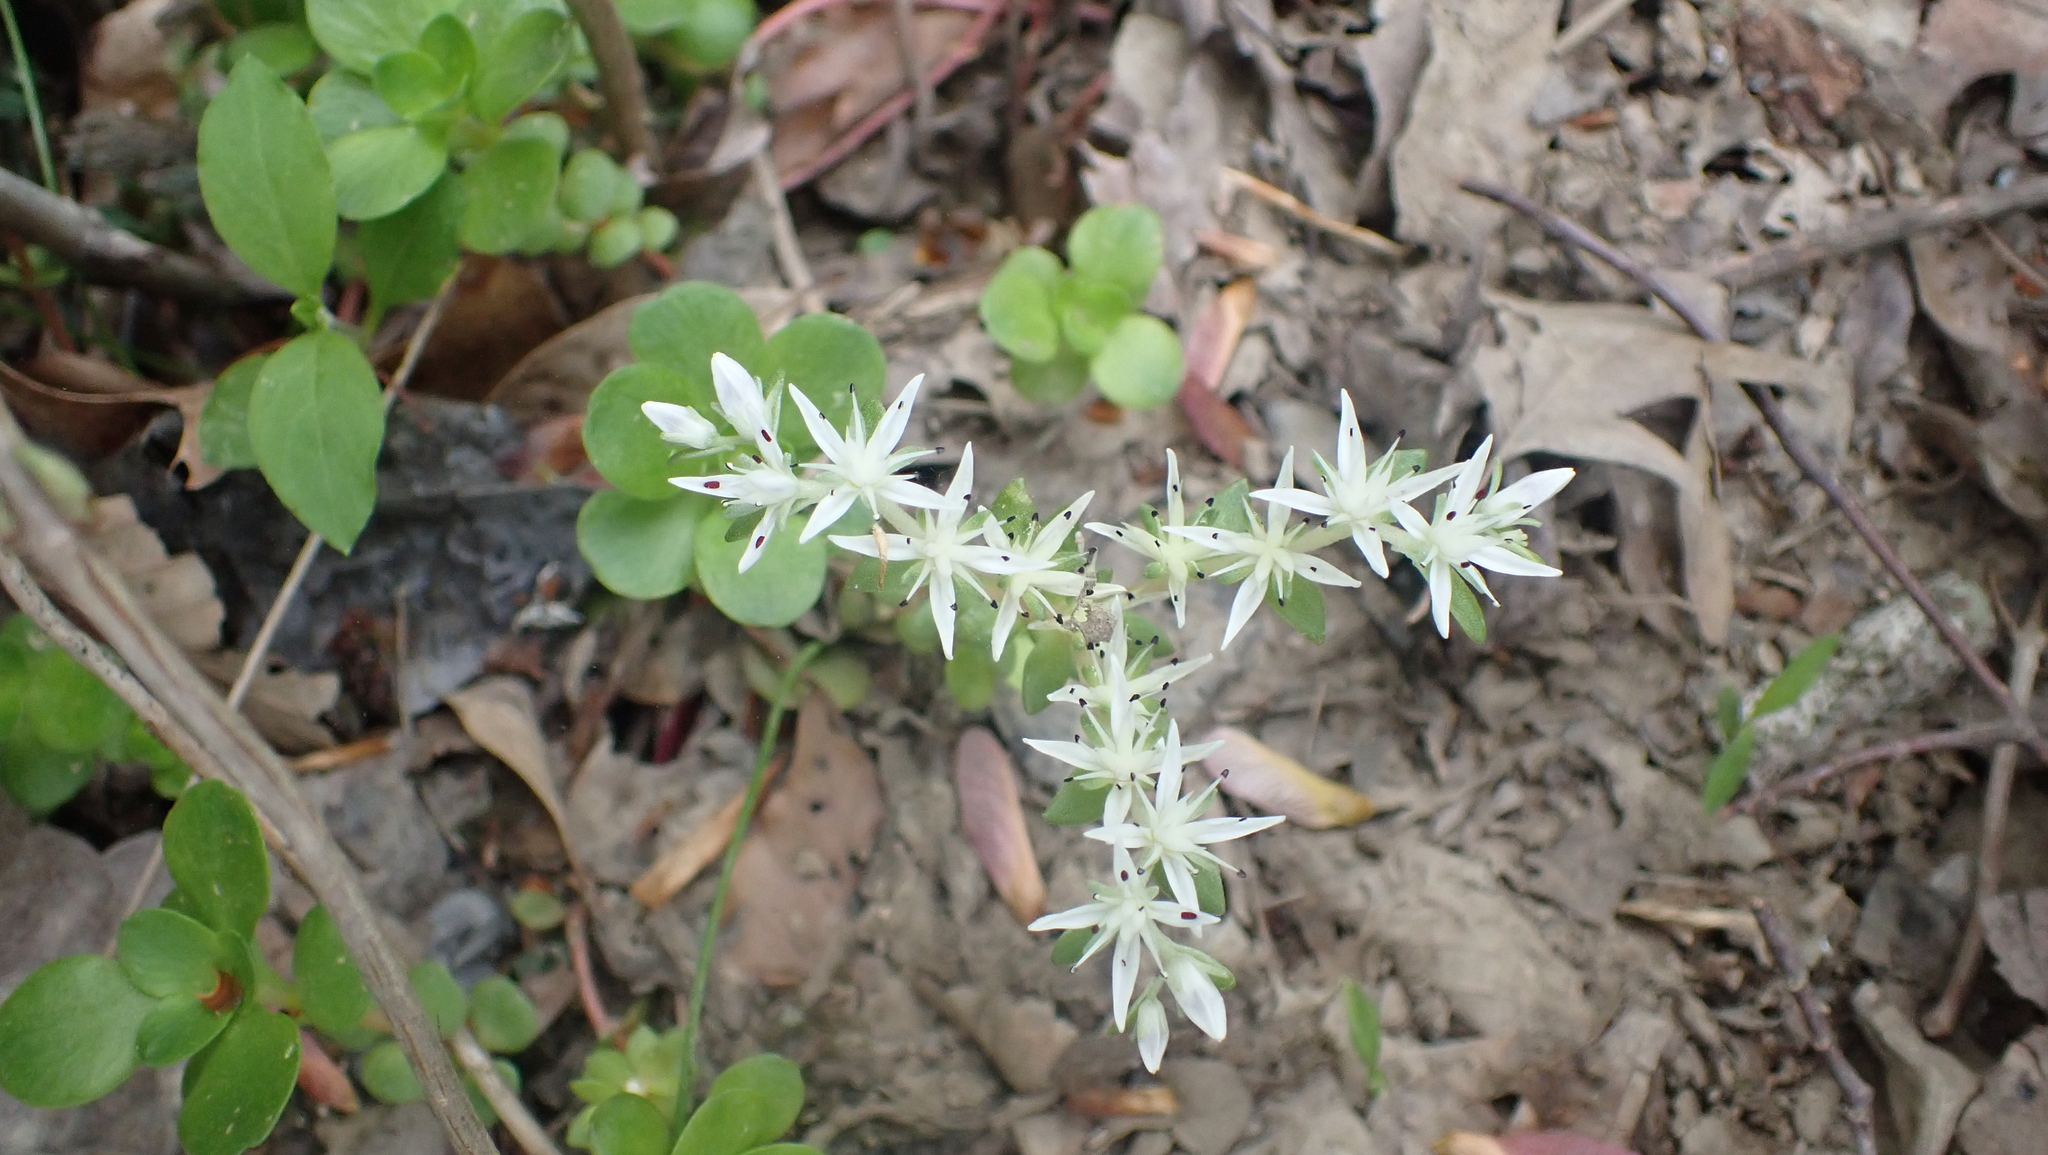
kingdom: Plantae
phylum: Tracheophyta
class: Magnoliopsida
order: Saxifragales
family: Crassulaceae
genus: Sedum
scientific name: Sedum ternatum
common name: Wild stonecrop
